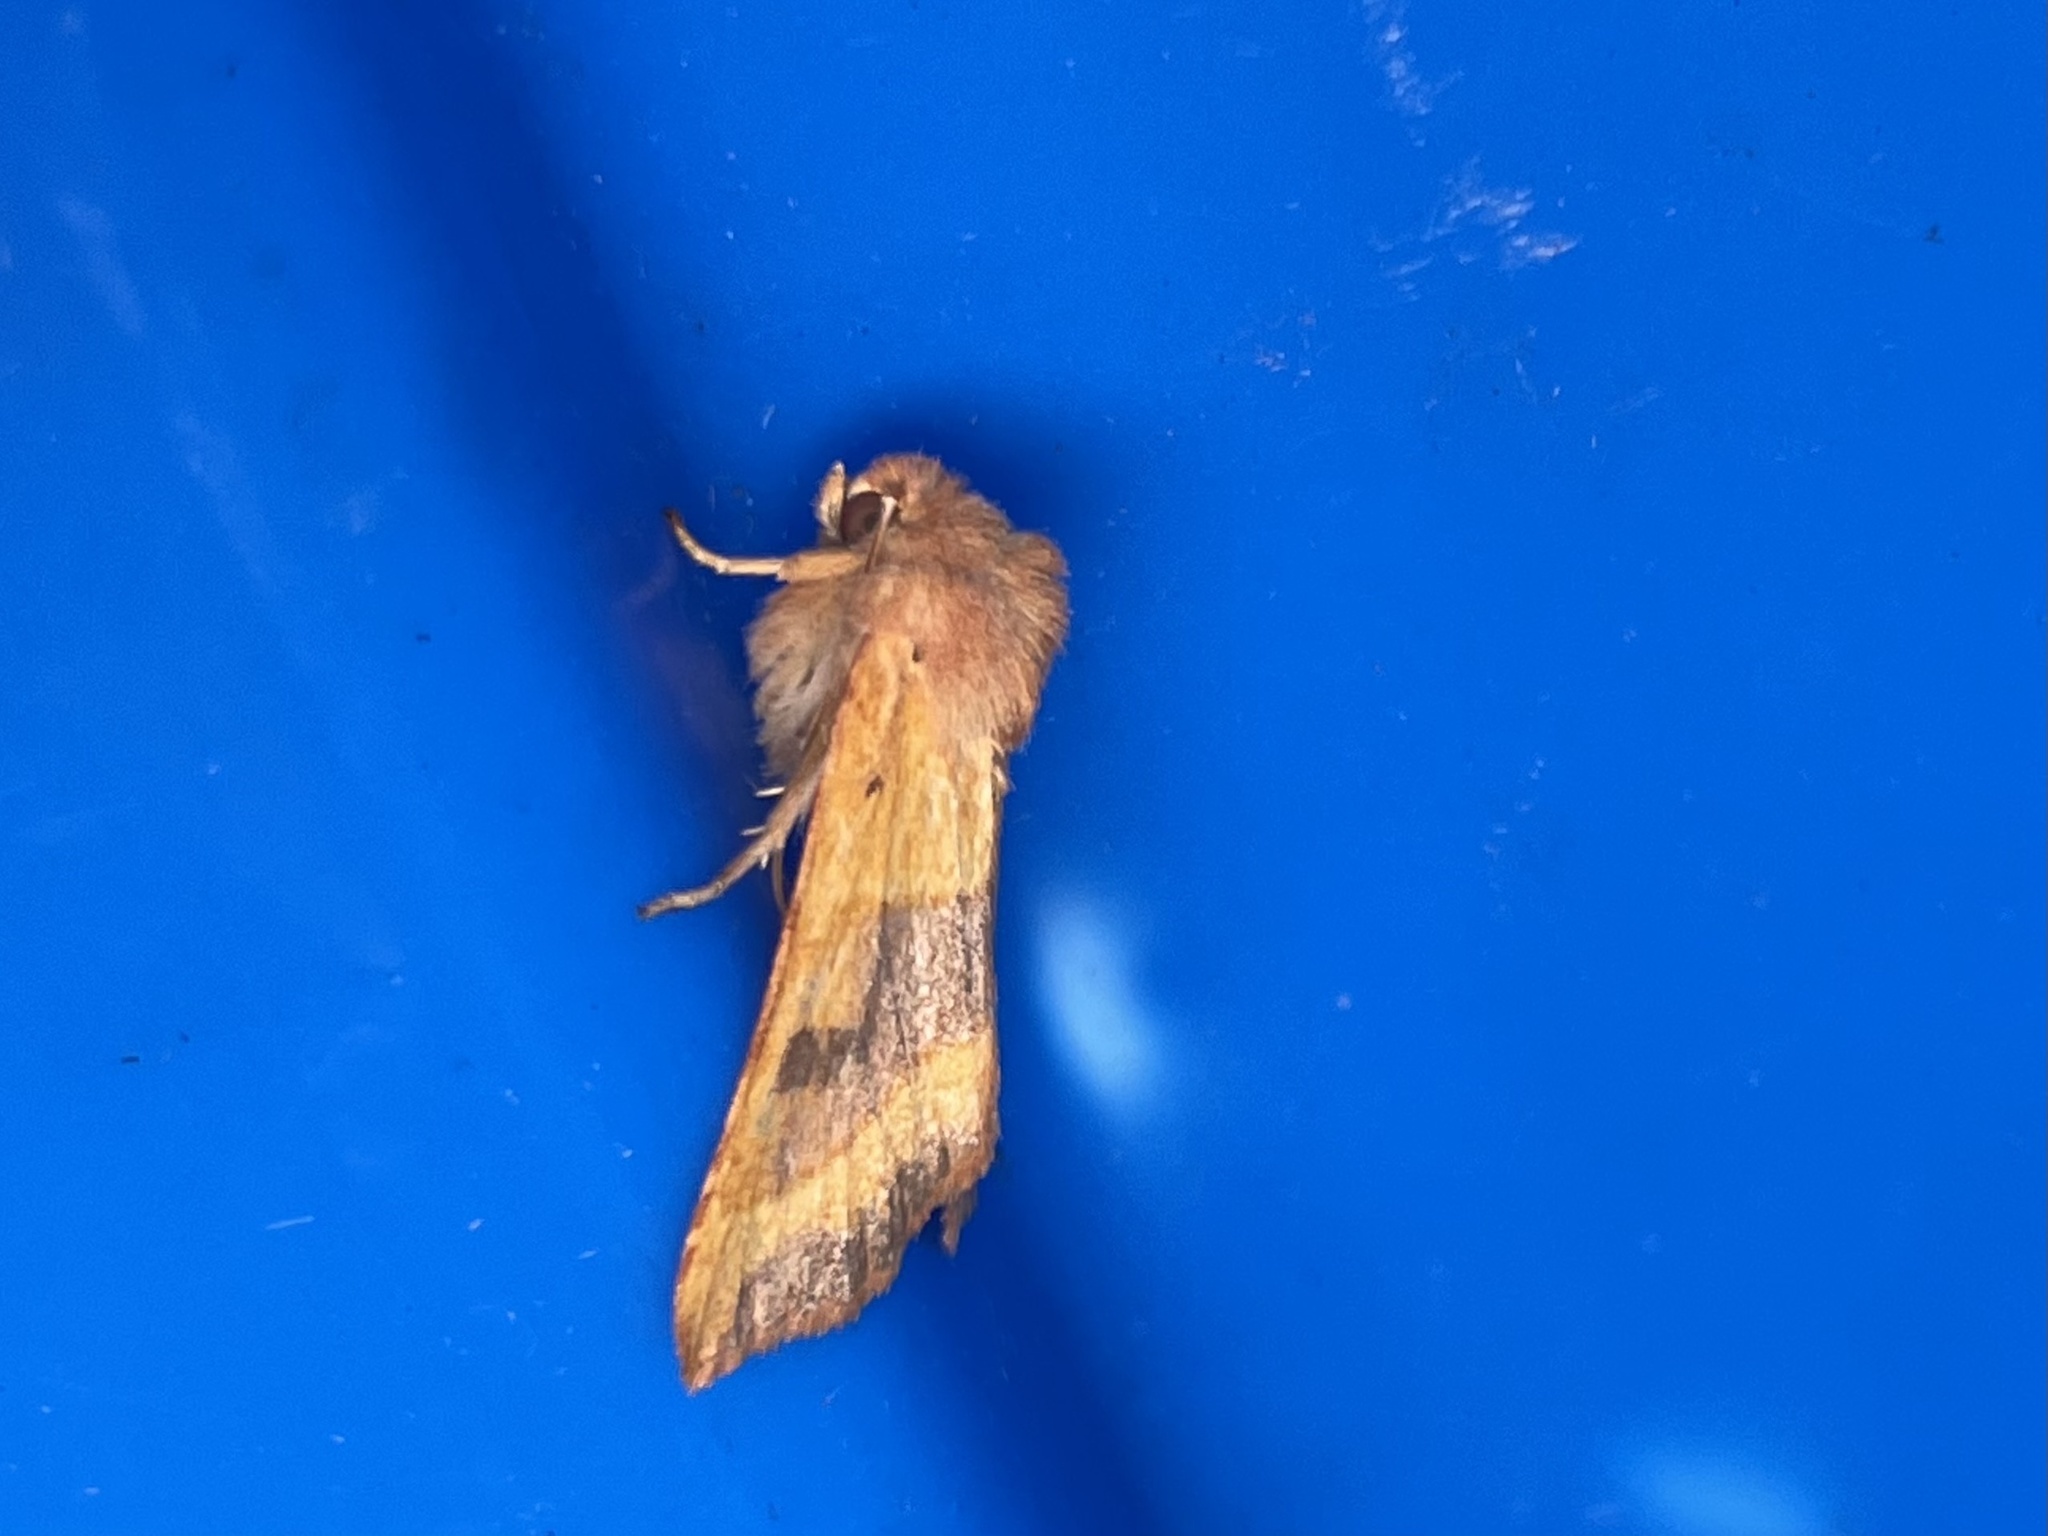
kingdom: Animalia
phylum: Arthropoda
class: Insecta
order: Lepidoptera
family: Noctuidae
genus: Atethmia
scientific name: Atethmia centrago
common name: Centre-barred sallow
